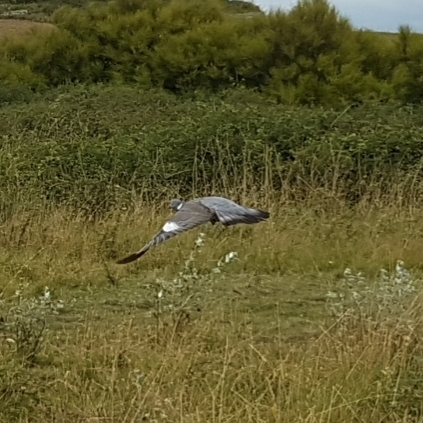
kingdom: Animalia
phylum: Chordata
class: Aves
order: Columbiformes
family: Columbidae
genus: Columba
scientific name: Columba palumbus
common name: Common wood pigeon
